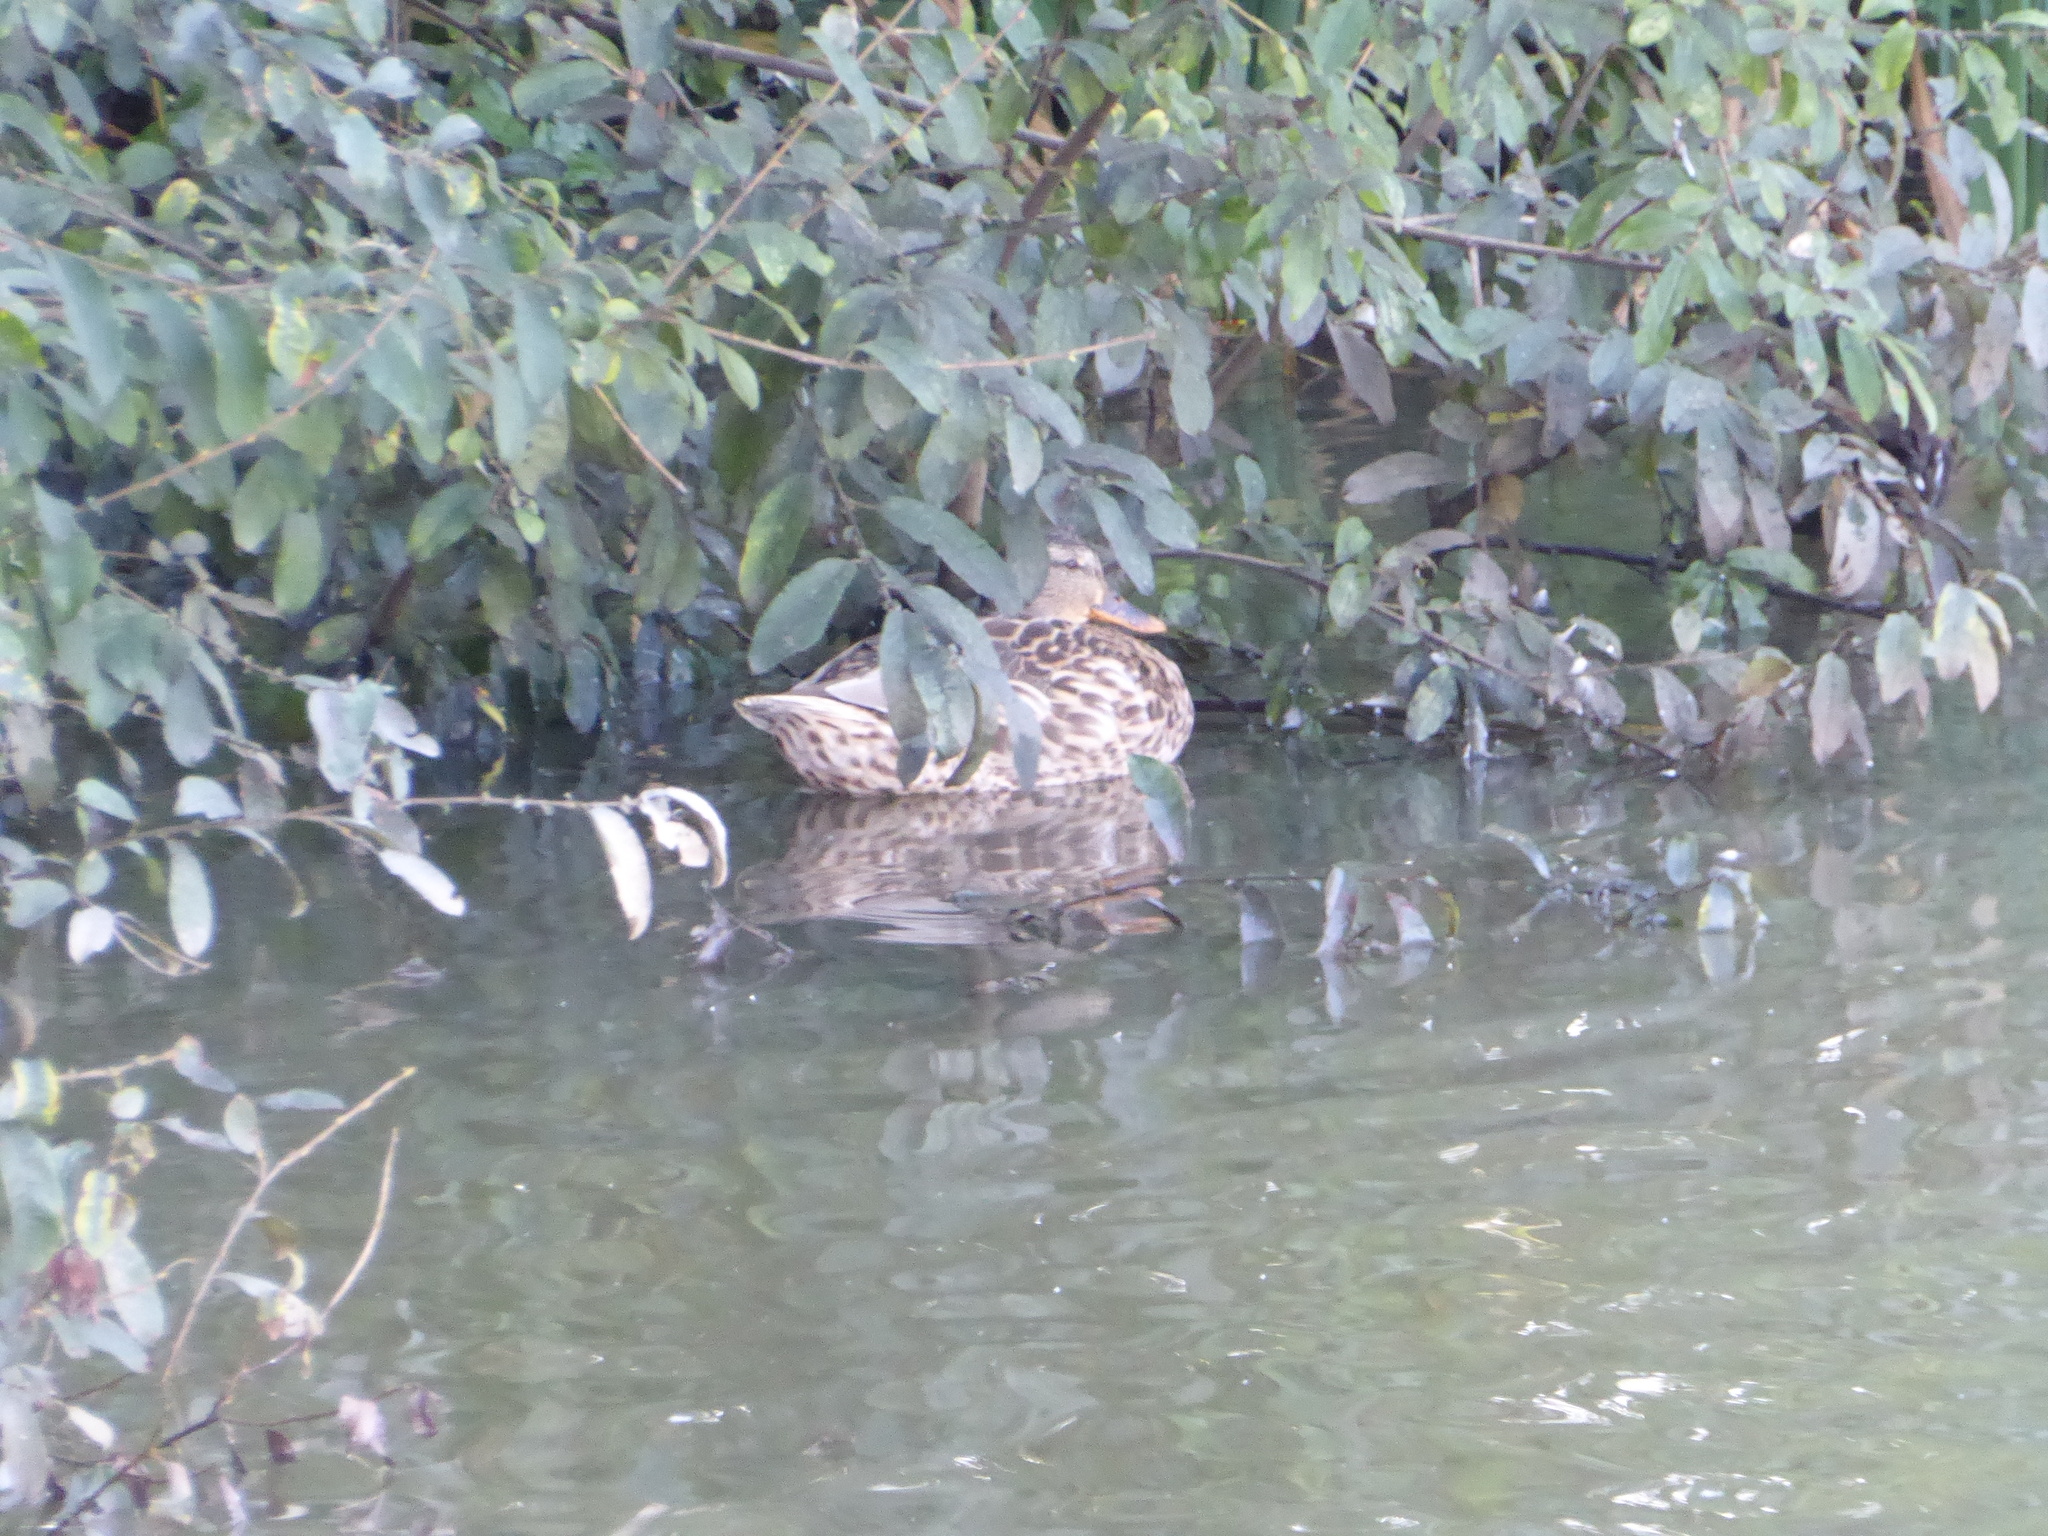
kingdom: Animalia
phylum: Chordata
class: Aves
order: Anseriformes
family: Anatidae
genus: Anas
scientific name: Anas platyrhynchos
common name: Mallard
